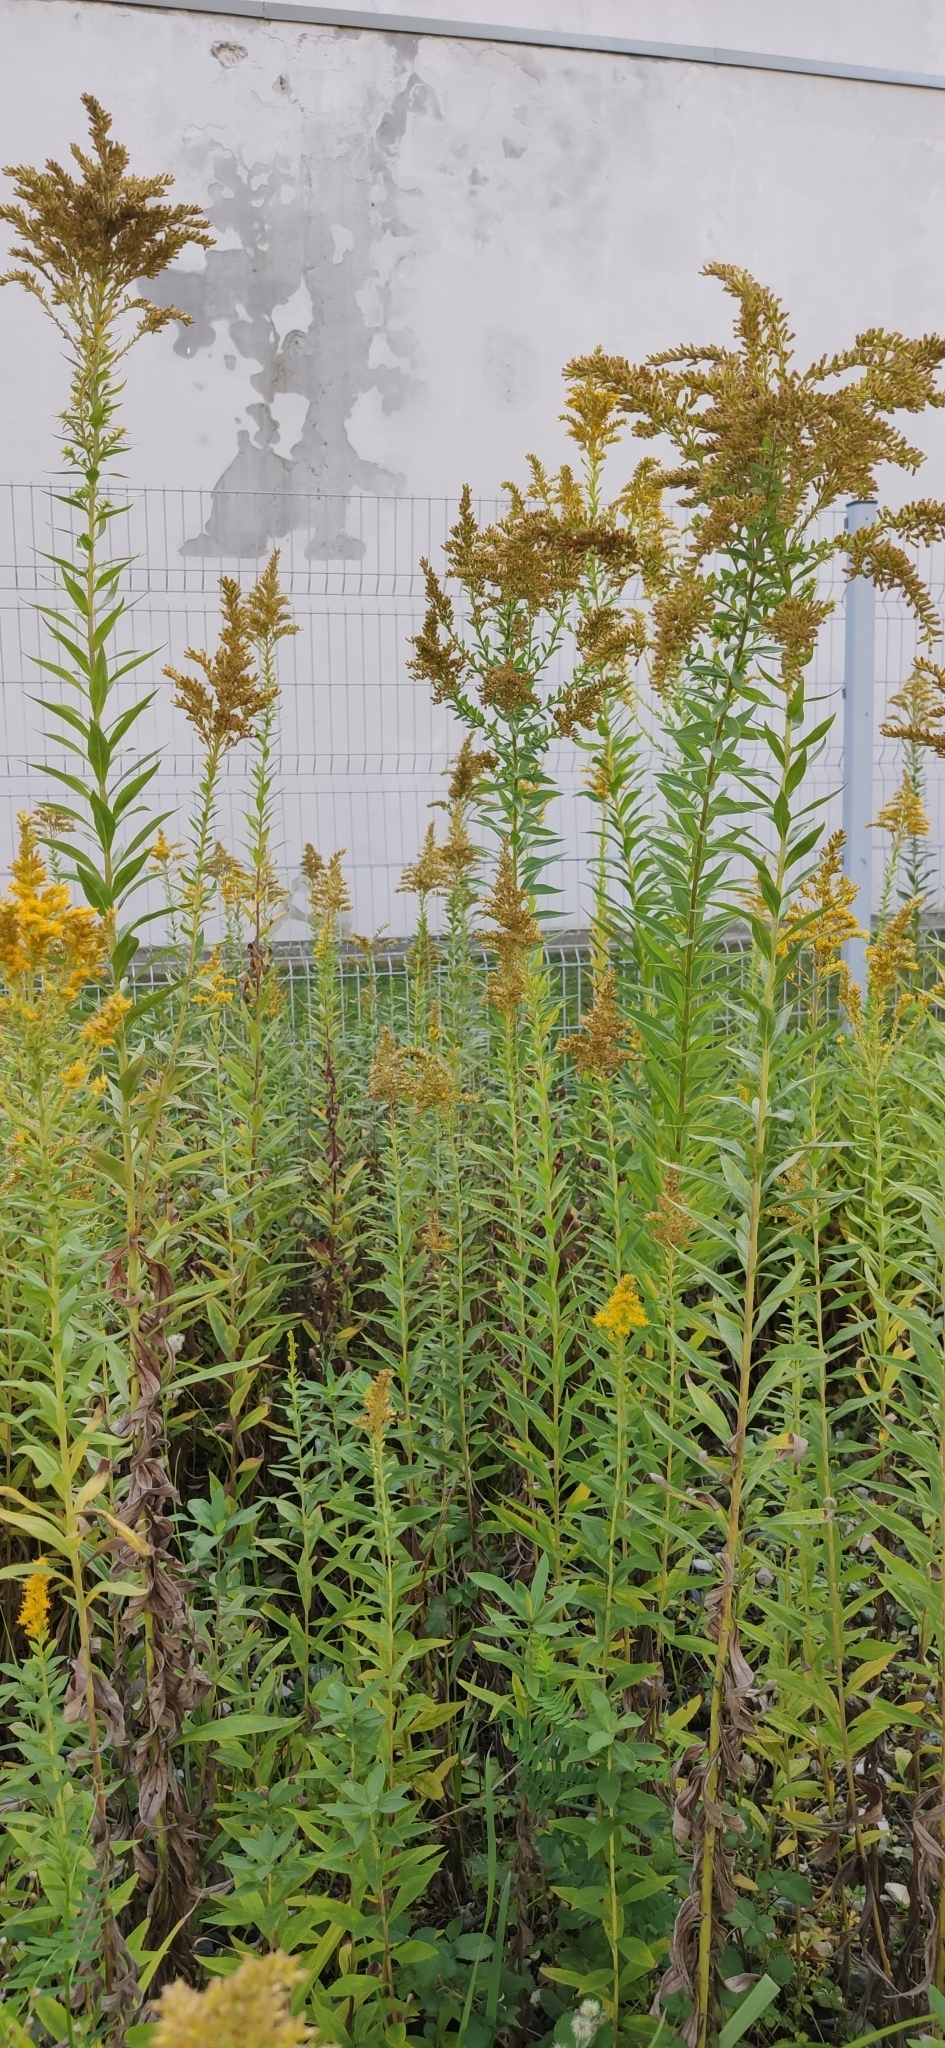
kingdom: Plantae
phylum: Tracheophyta
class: Magnoliopsida
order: Asterales
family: Asteraceae
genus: Solidago
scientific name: Solidago canadensis
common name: Canada goldenrod
